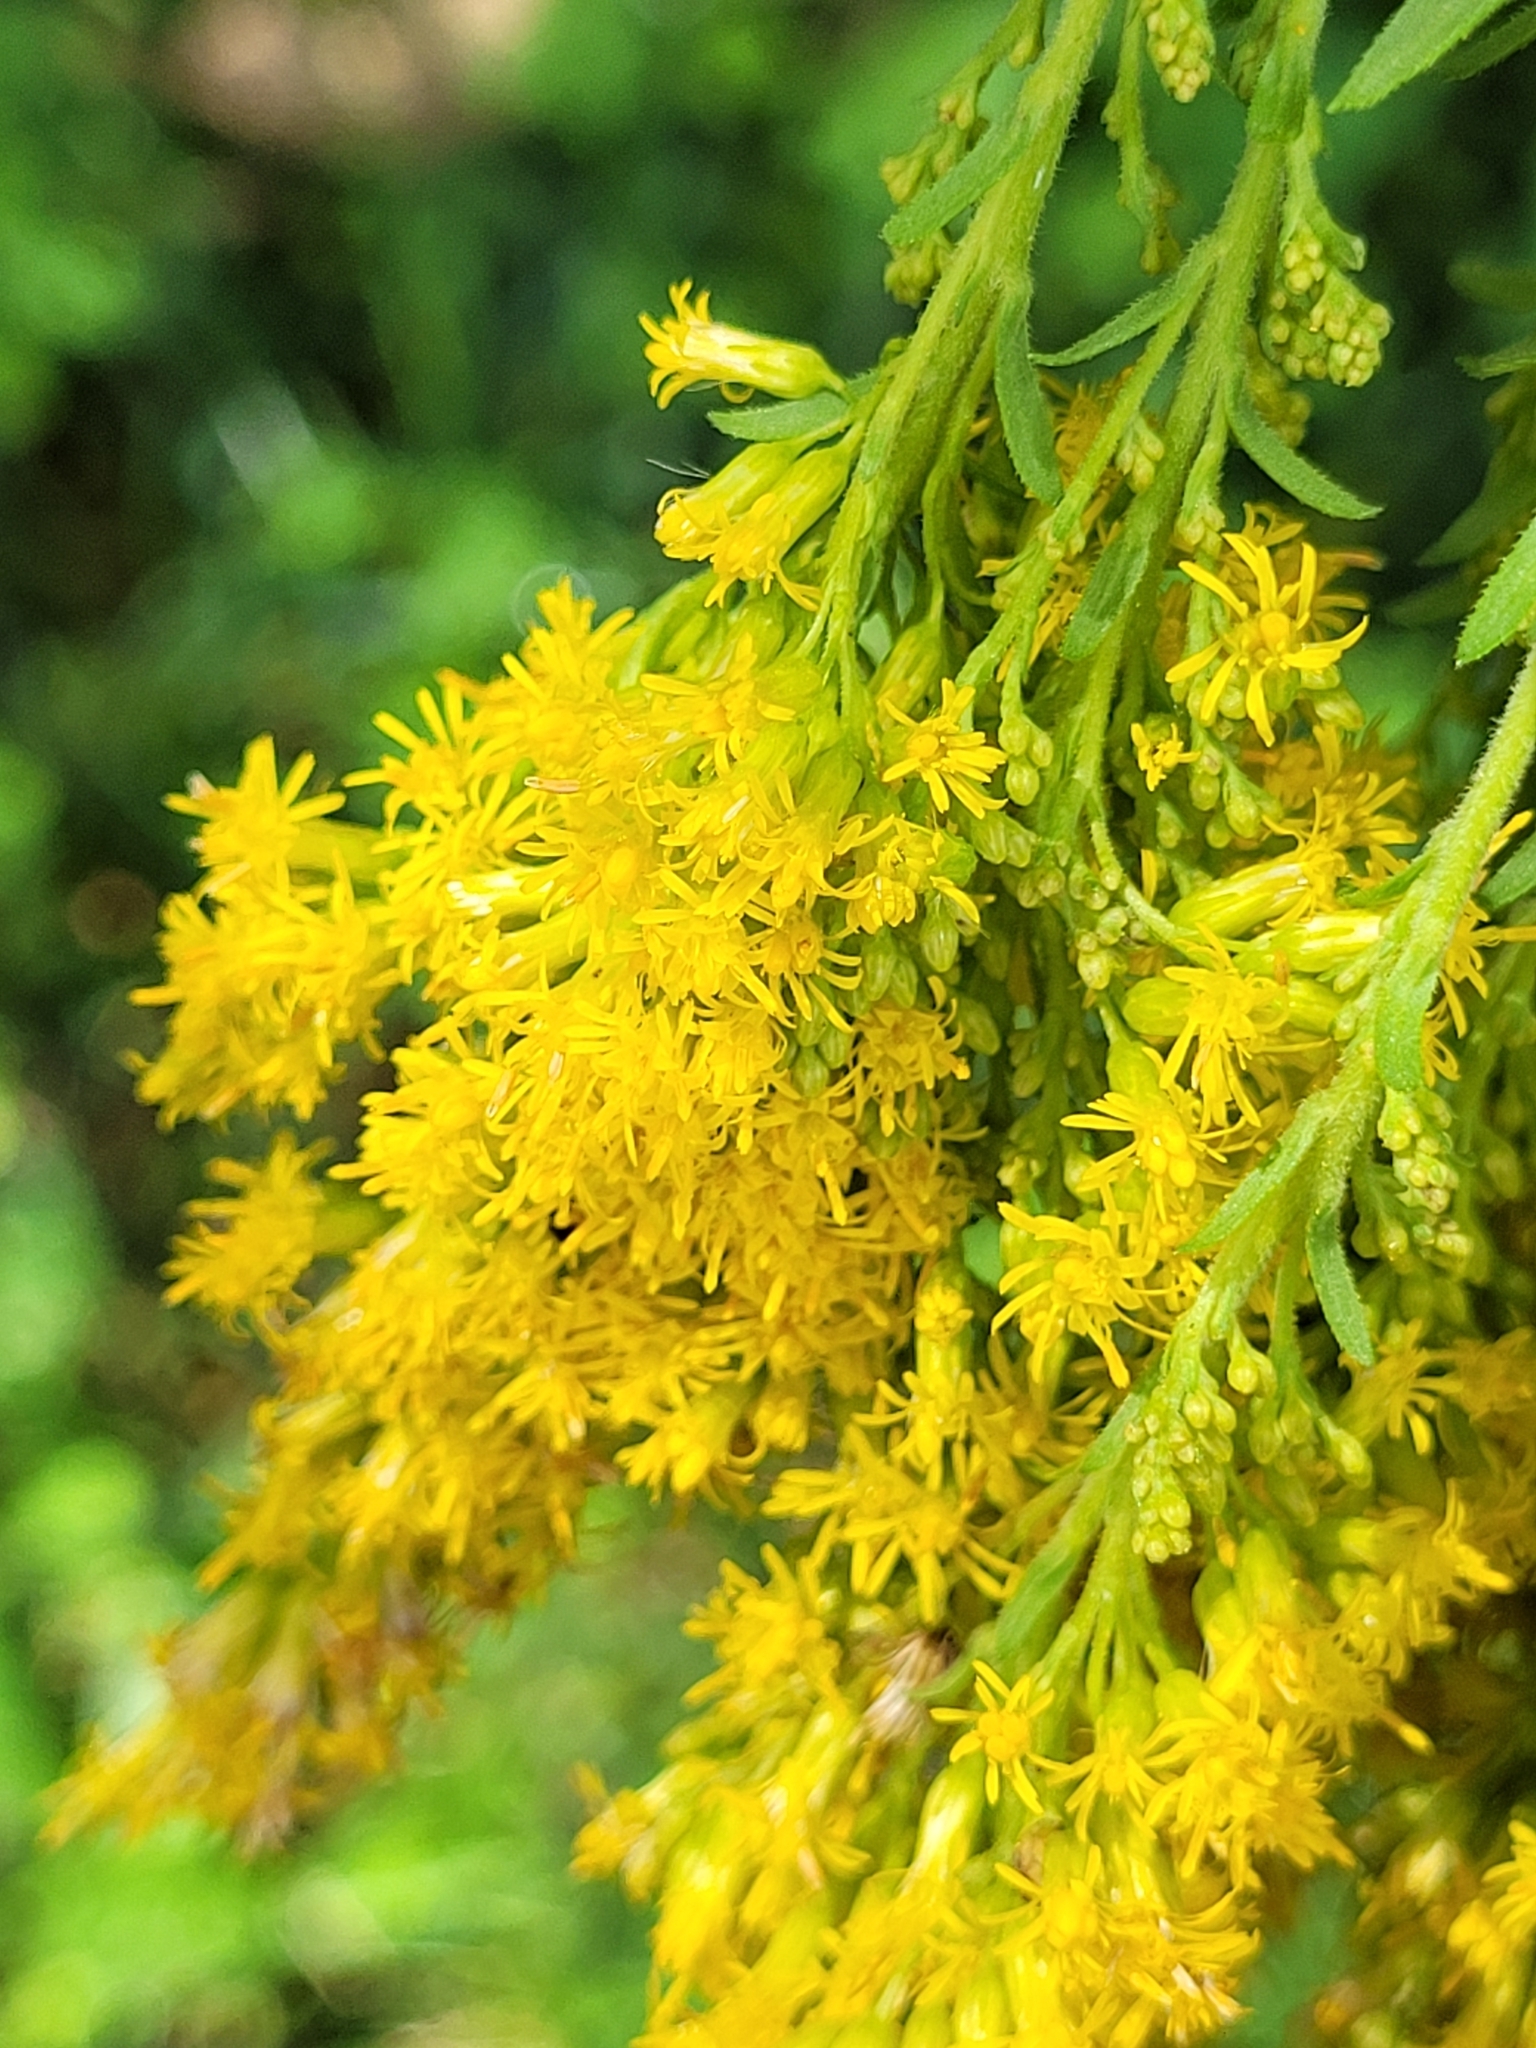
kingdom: Plantae
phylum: Tracheophyta
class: Magnoliopsida
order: Asterales
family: Asteraceae
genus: Solidago
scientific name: Solidago altissima
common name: Late goldenrod
